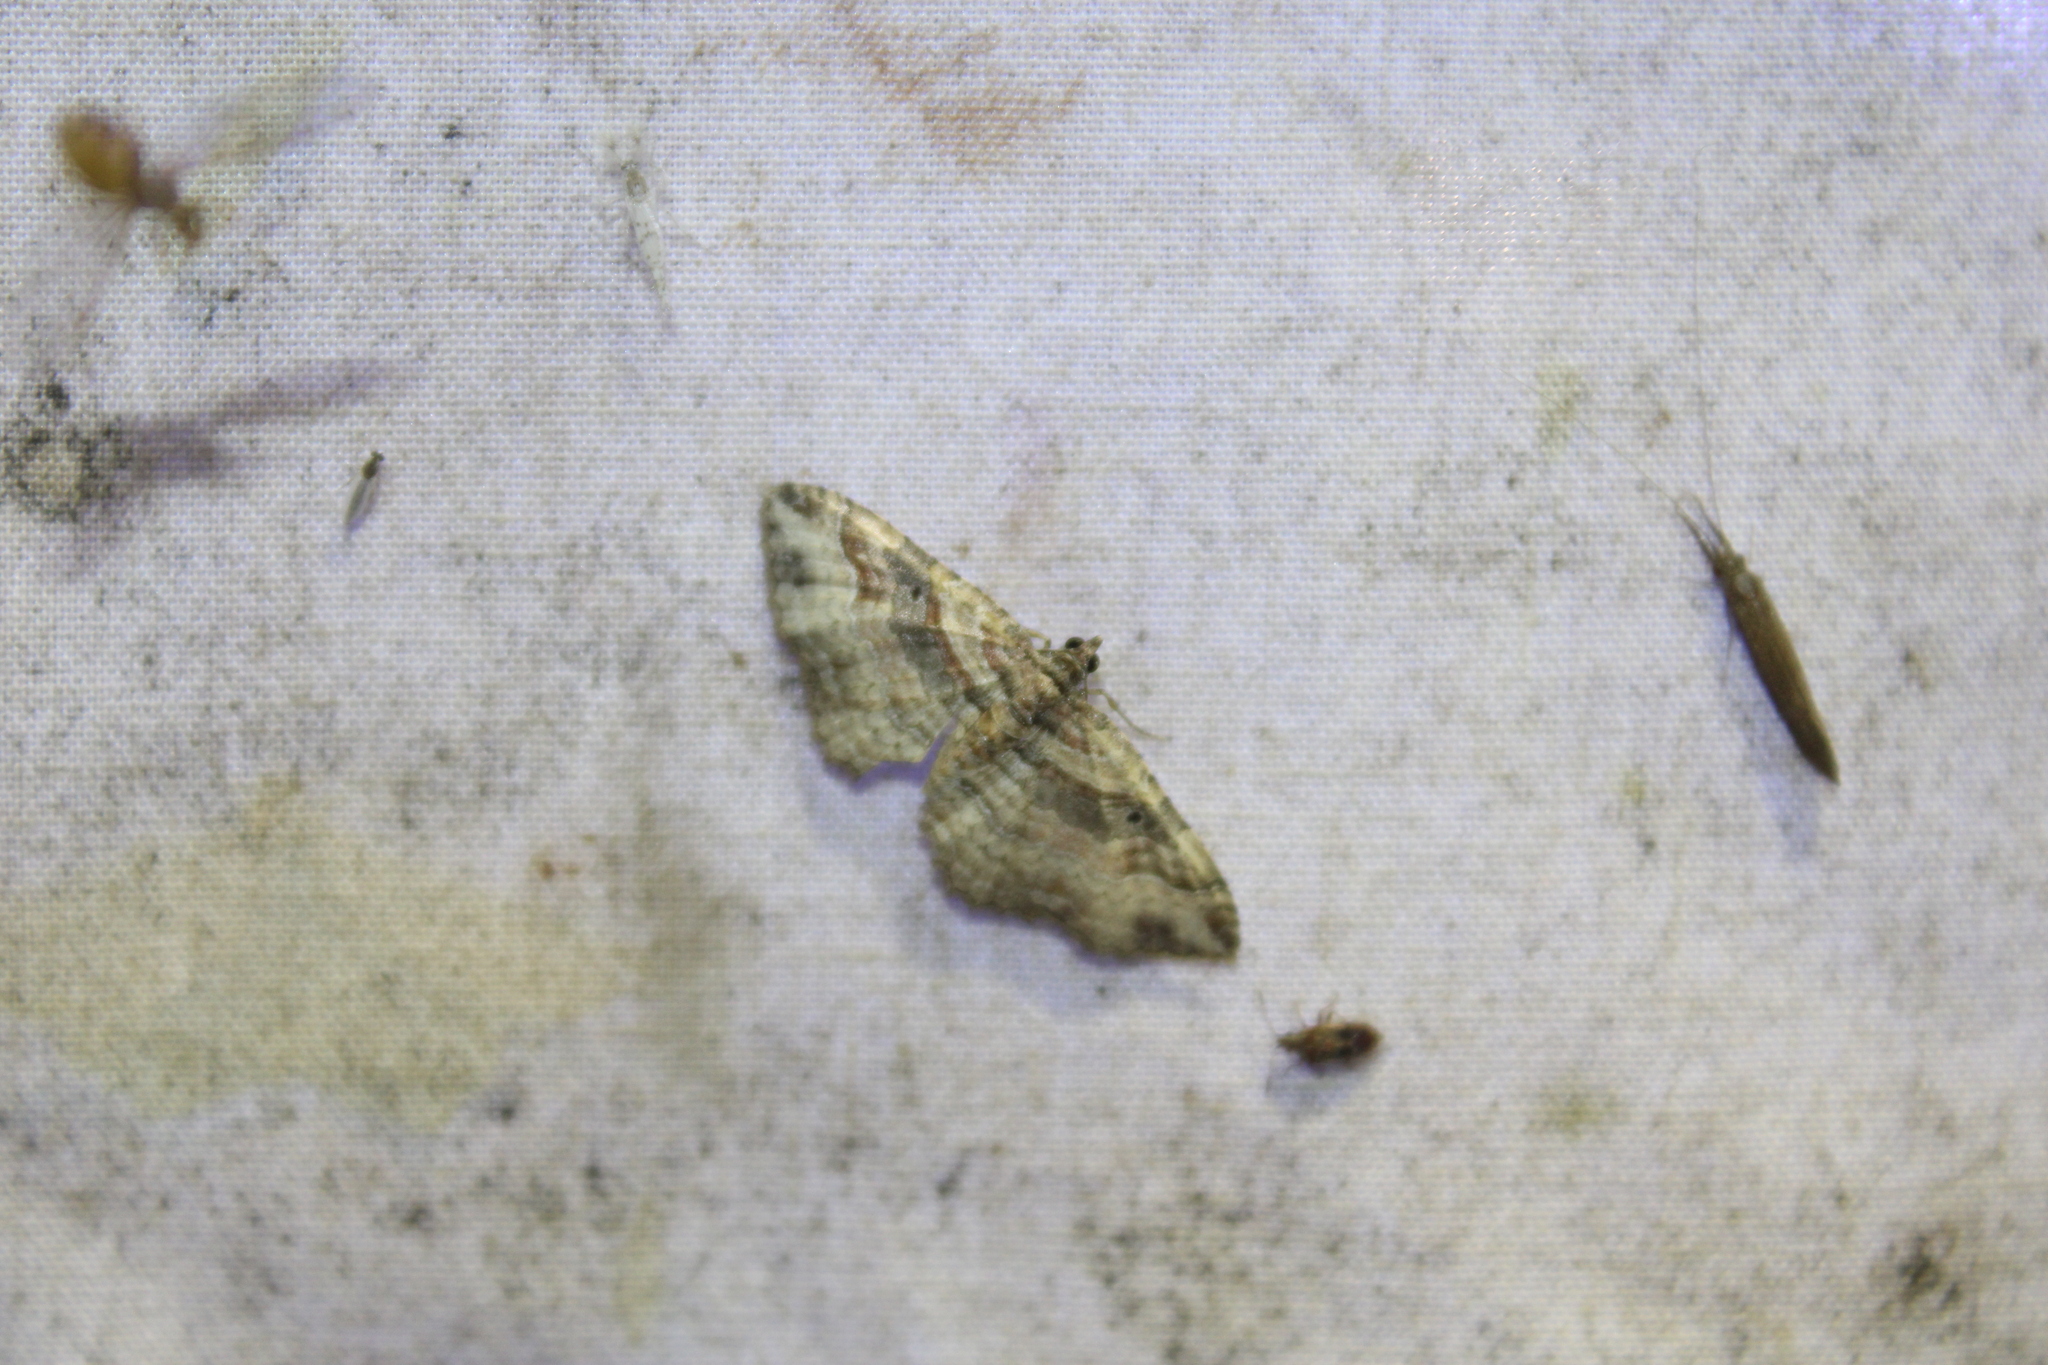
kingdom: Animalia
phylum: Arthropoda
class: Insecta
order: Lepidoptera
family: Geometridae
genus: Costaconvexa
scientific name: Costaconvexa centrostrigaria
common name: Bent-line carpet
